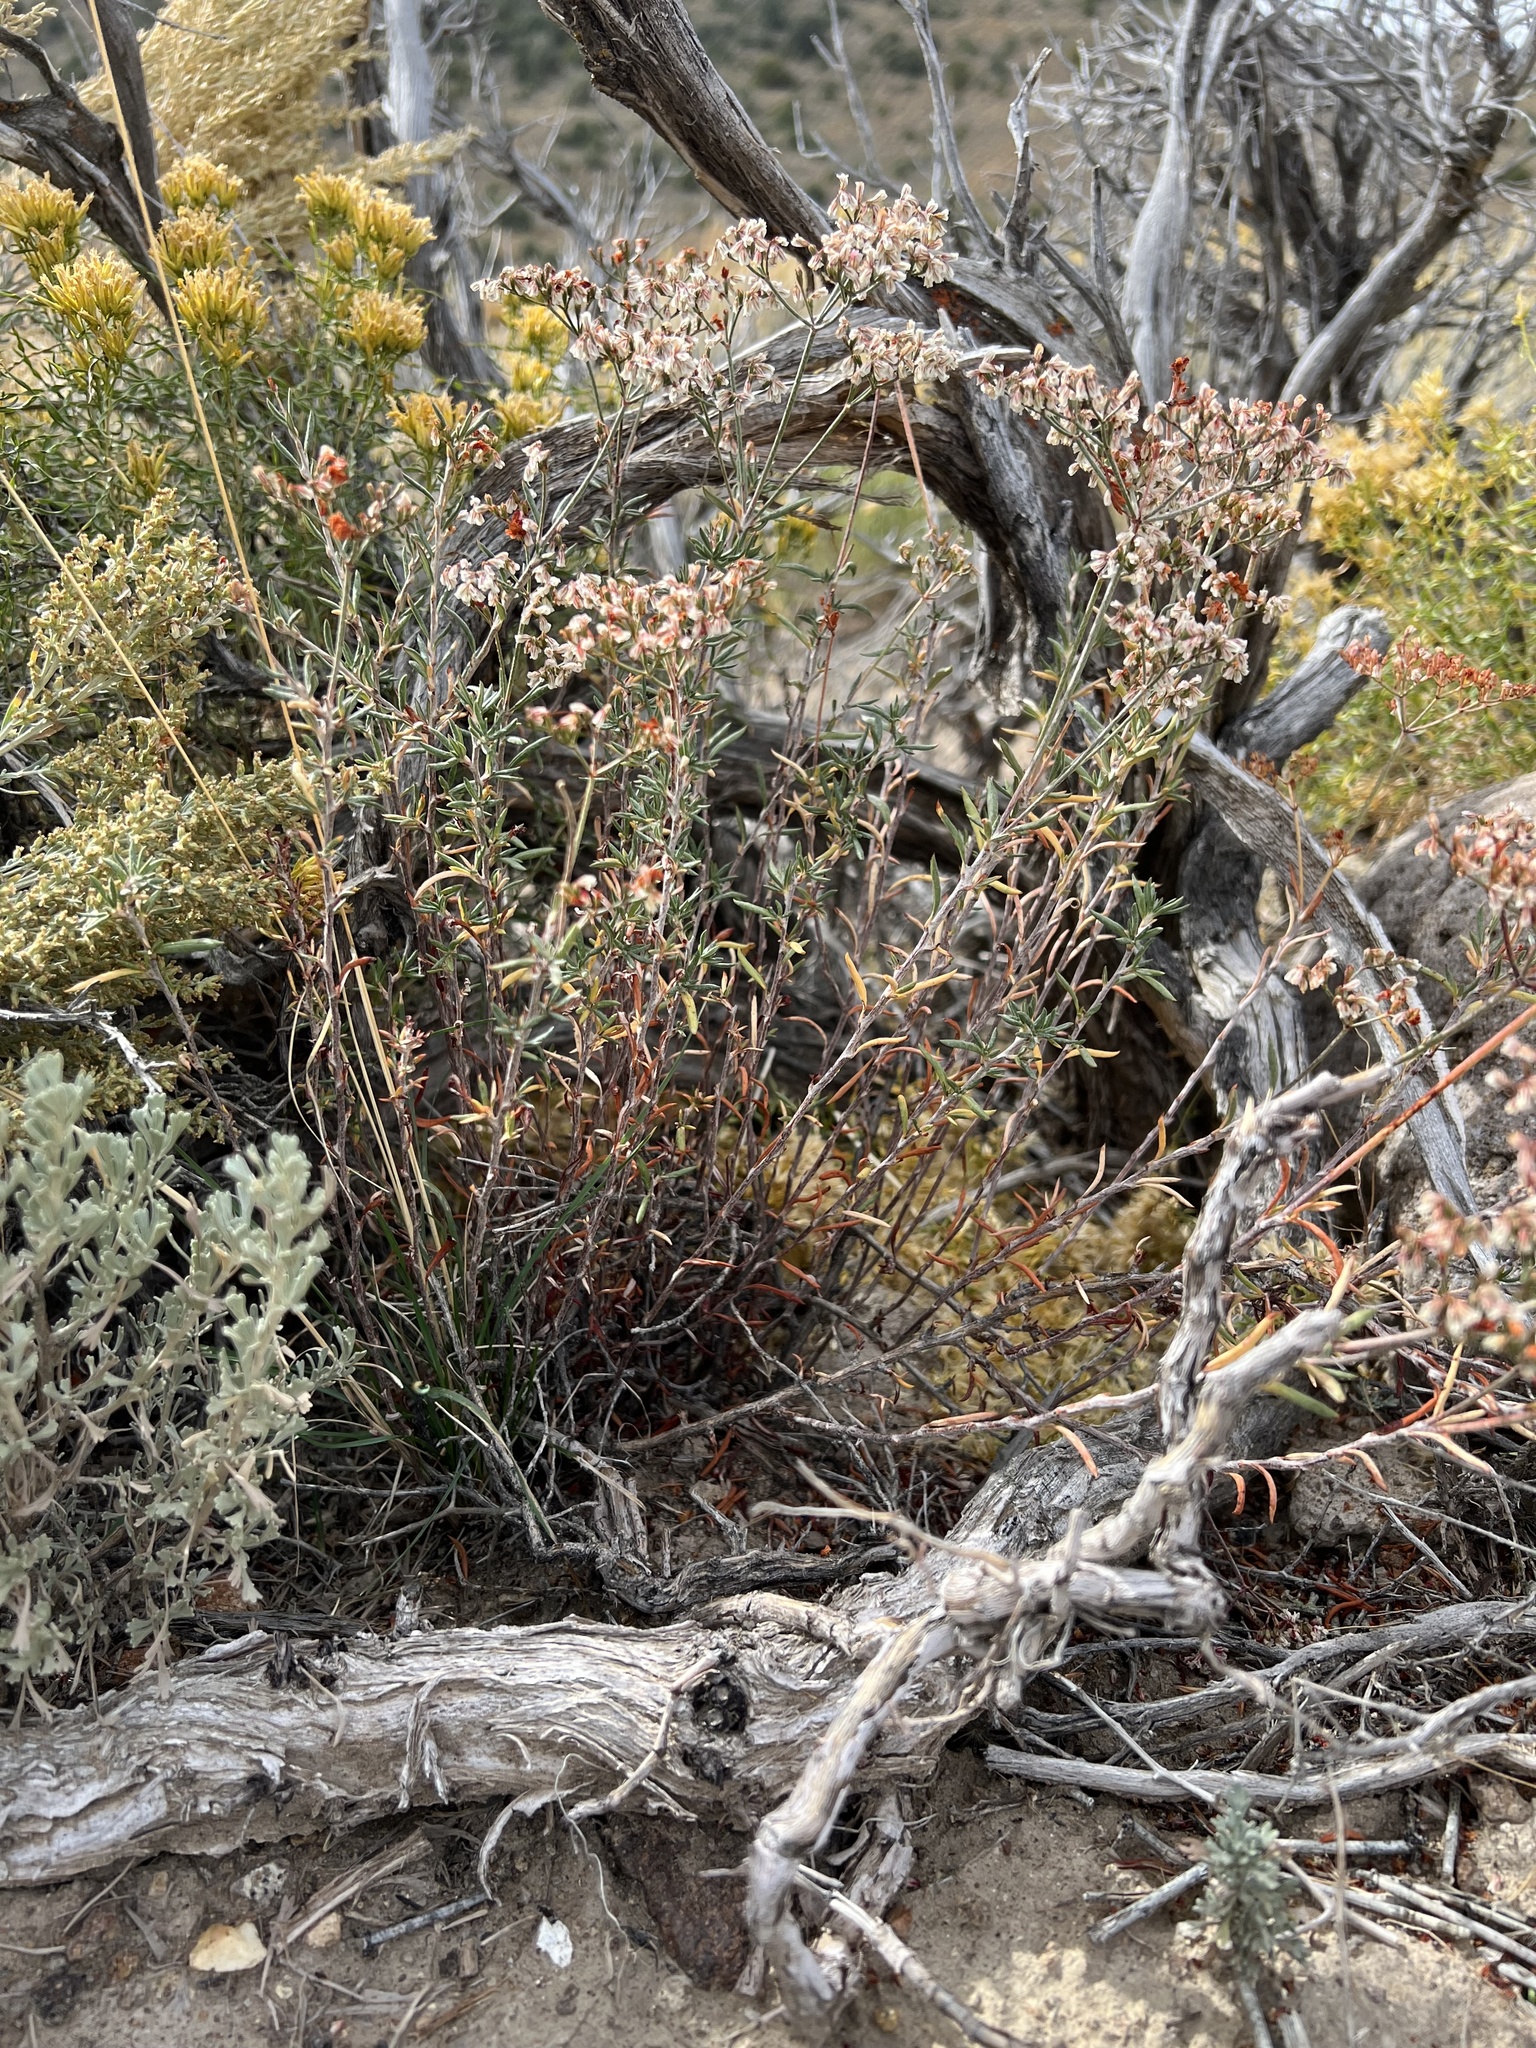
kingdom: Plantae
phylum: Tracheophyta
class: Magnoliopsida
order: Caryophyllales
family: Polygonaceae
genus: Eriogonum
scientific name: Eriogonum microtheca
